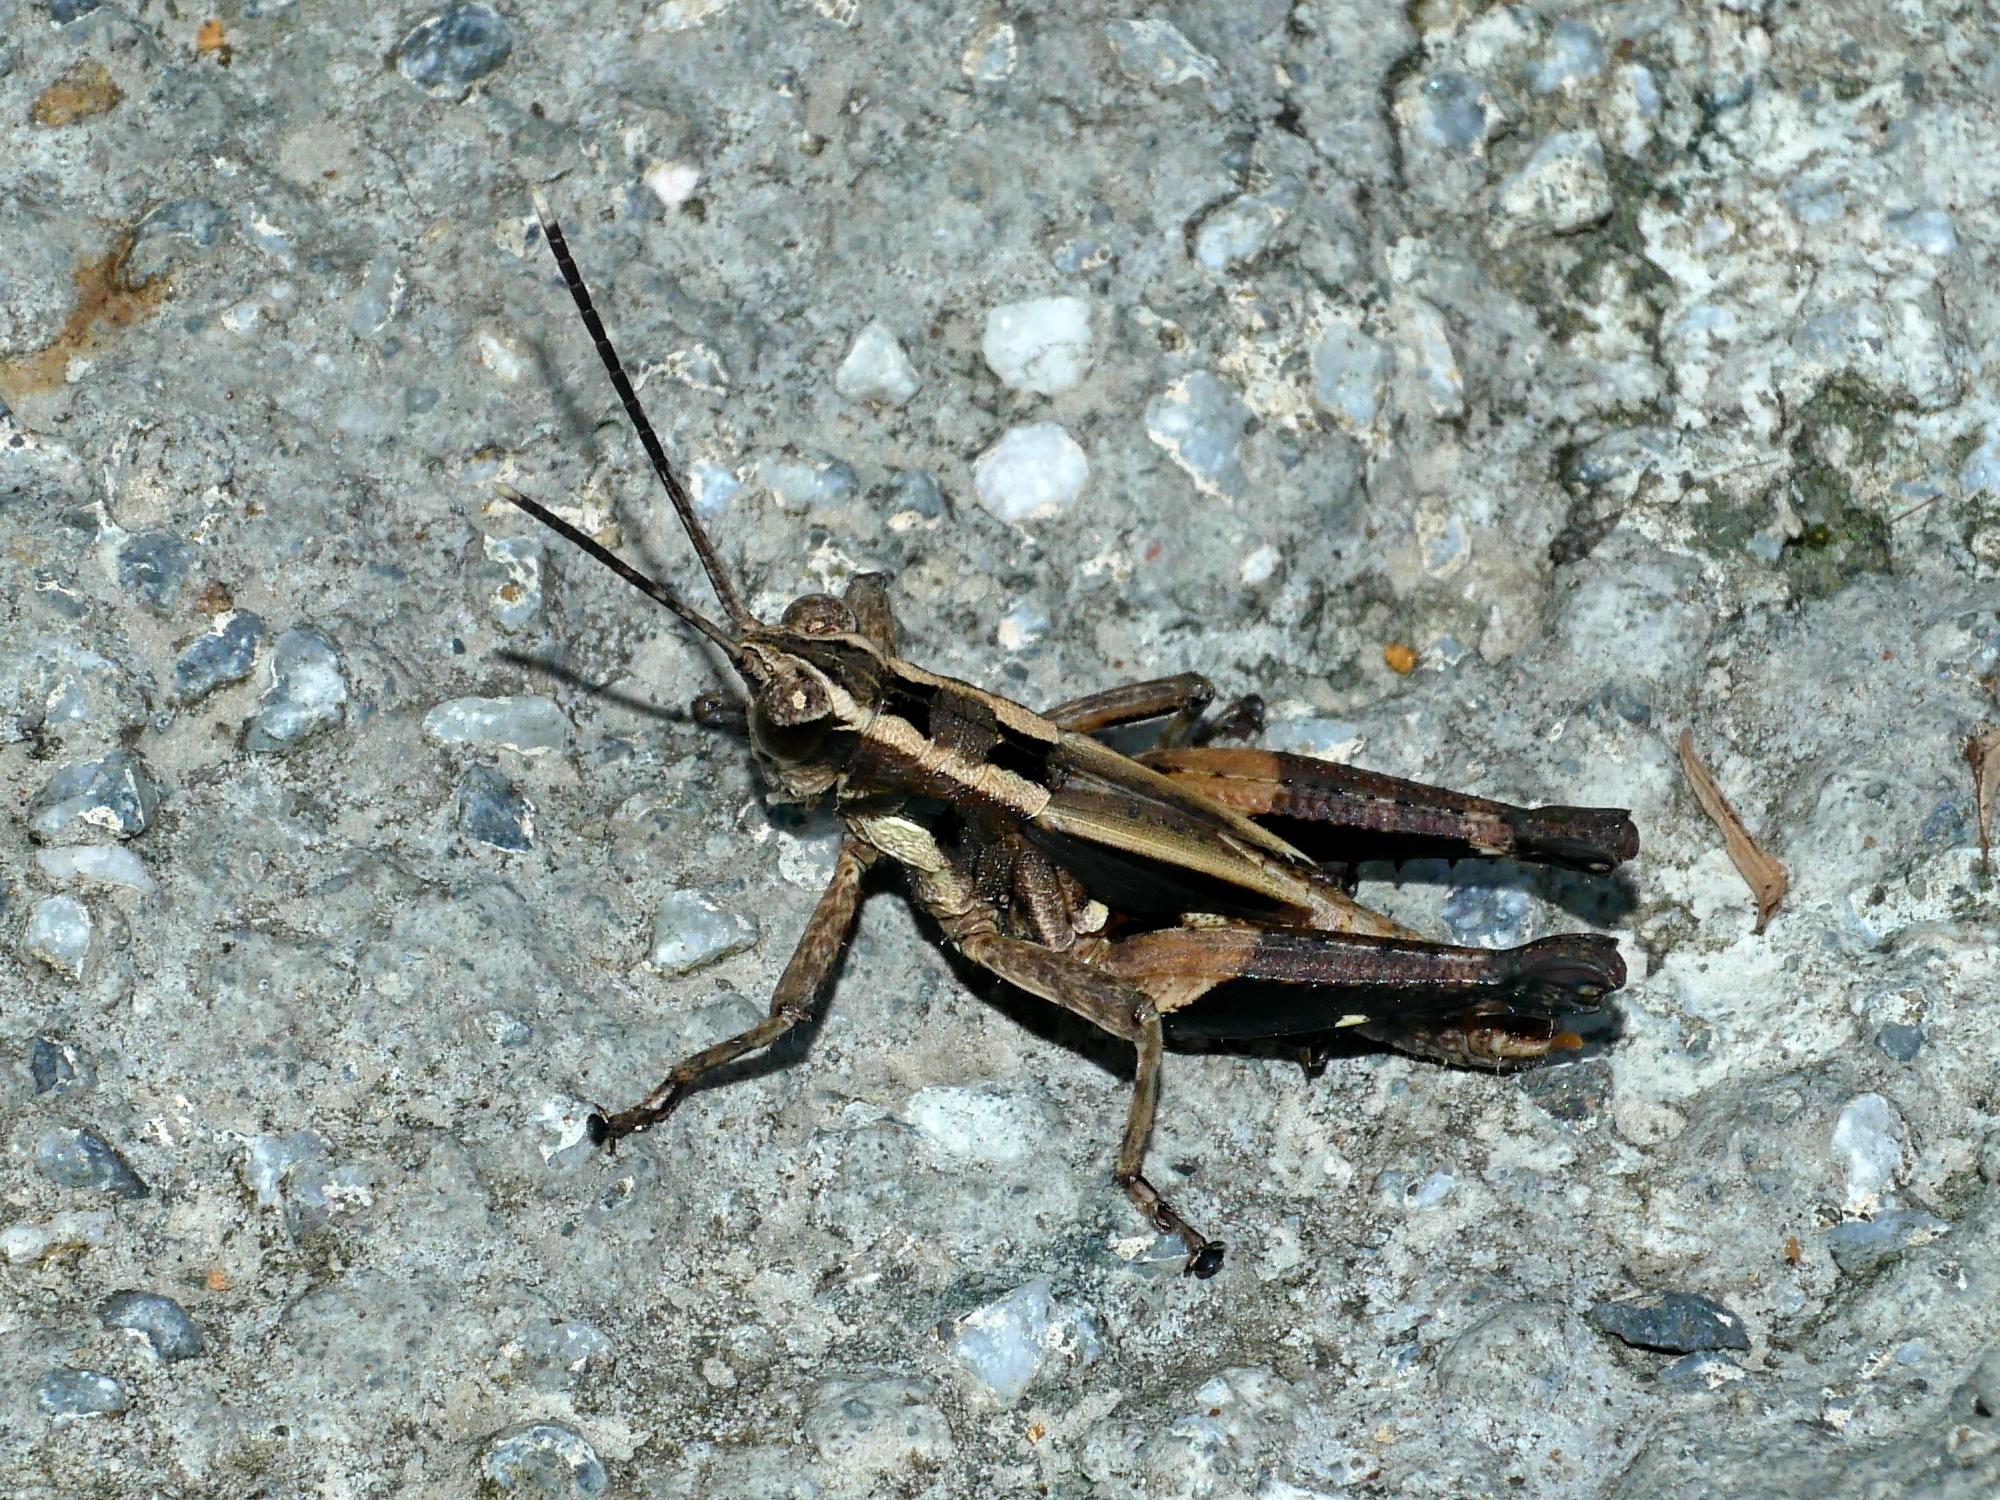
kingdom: Animalia
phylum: Arthropoda
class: Insecta
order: Orthoptera
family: Acrididae
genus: Traulia
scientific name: Traulia ornata
